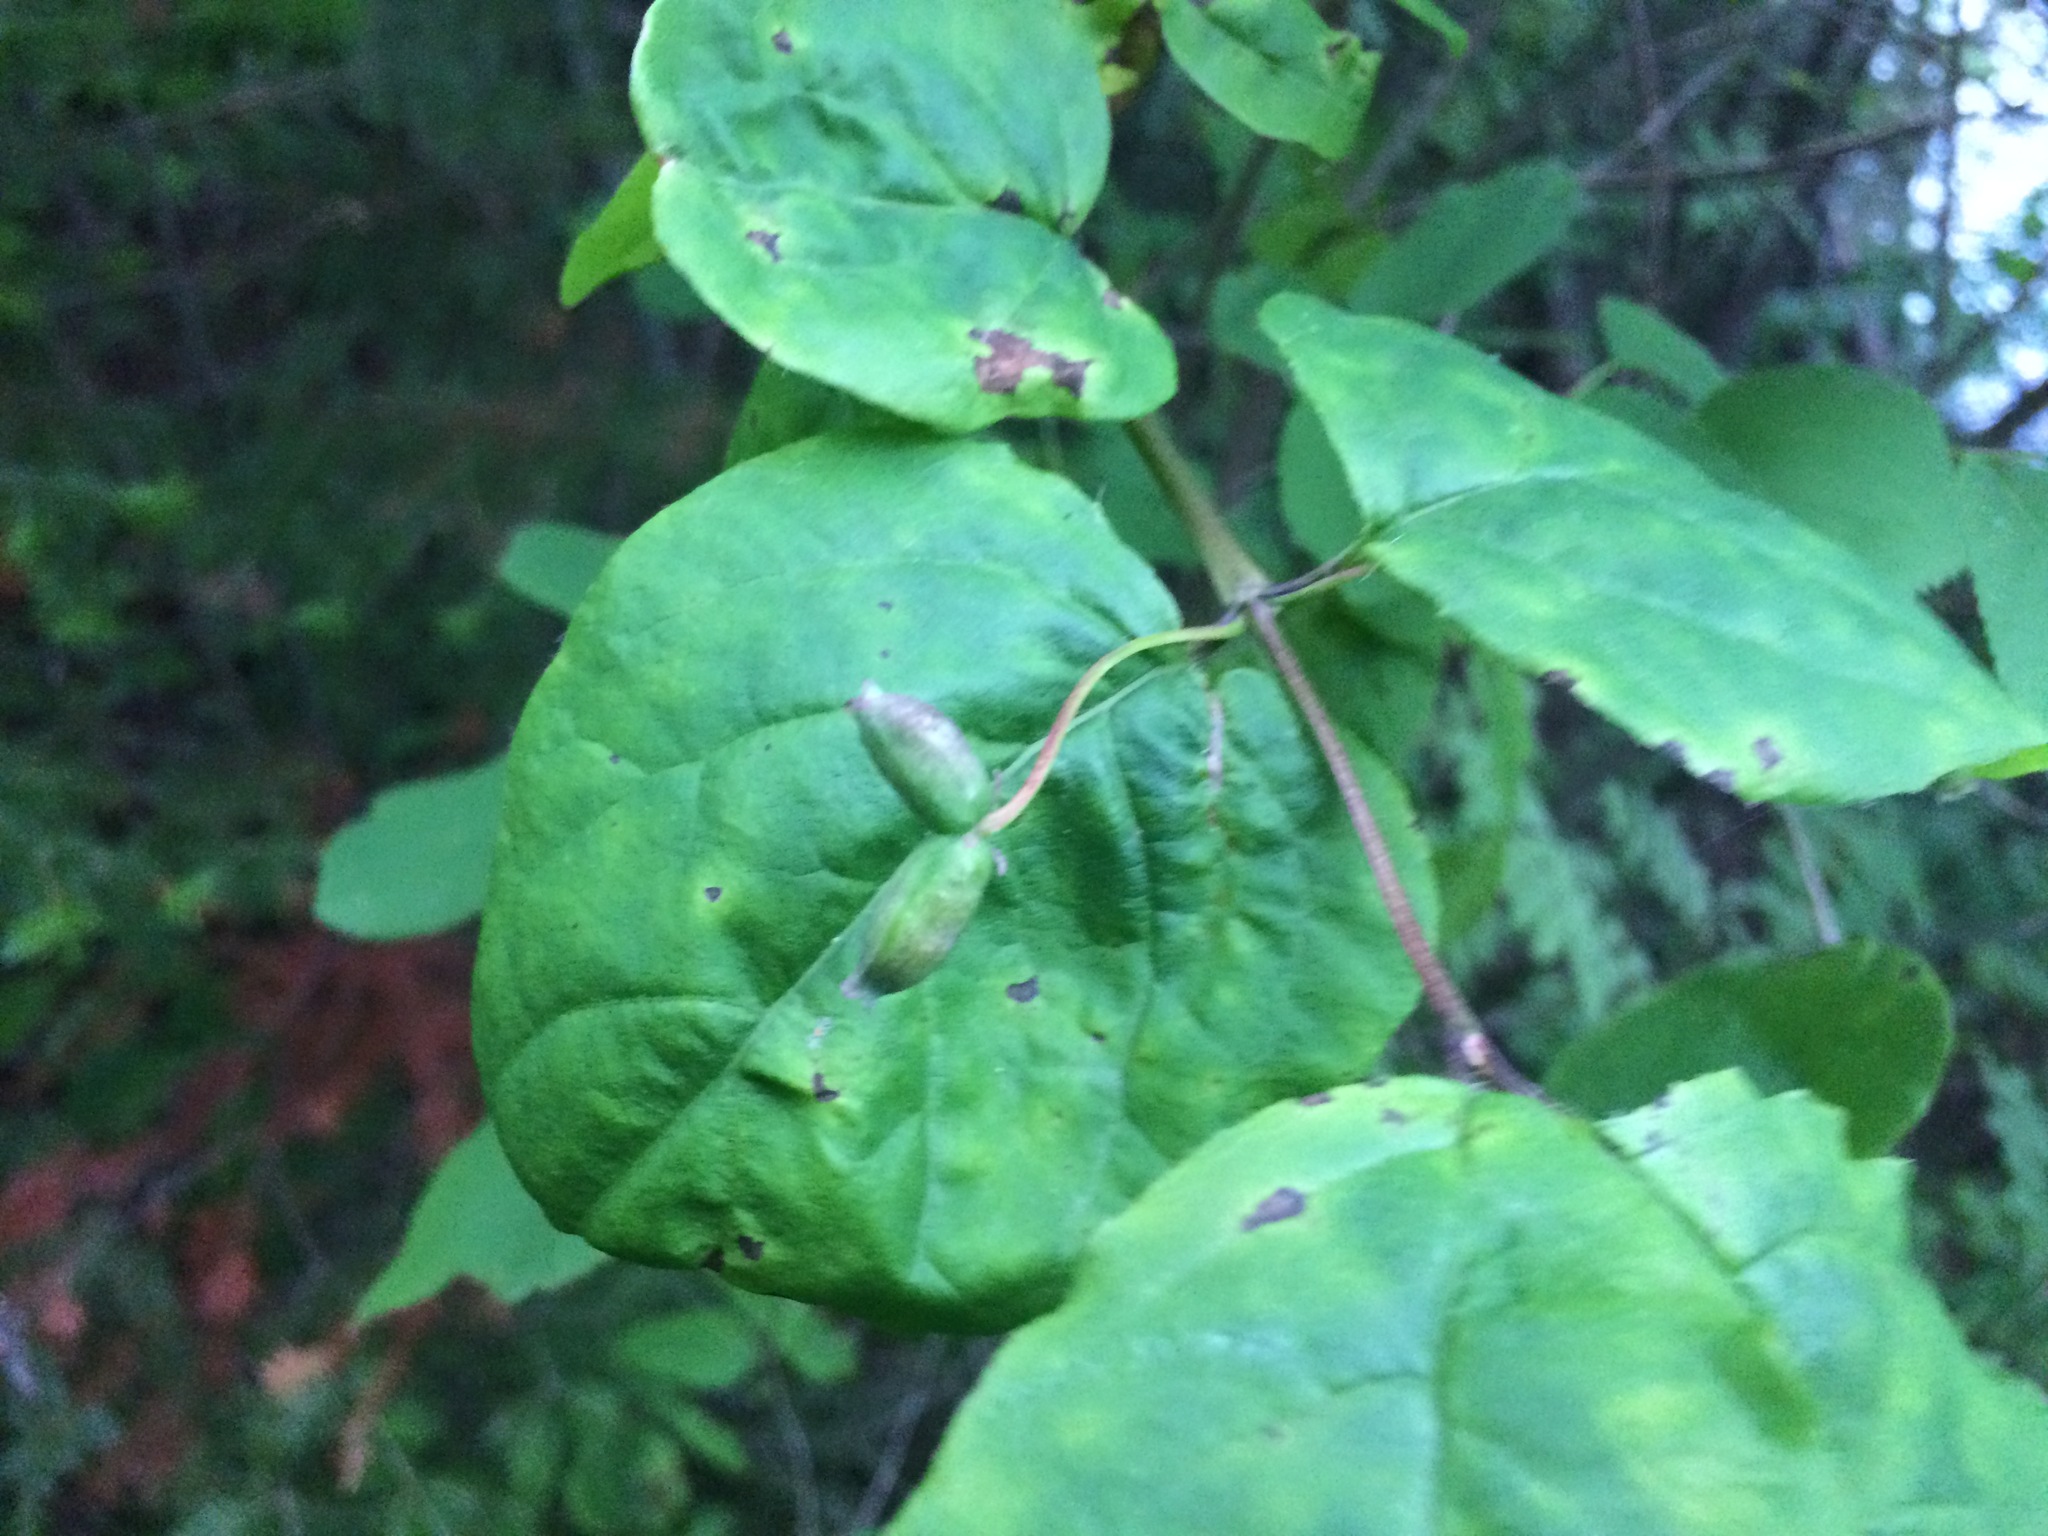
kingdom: Plantae
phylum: Tracheophyta
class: Magnoliopsida
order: Dipsacales
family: Caprifoliaceae
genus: Lonicera
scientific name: Lonicera canadensis
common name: American fly-honeysuckle
